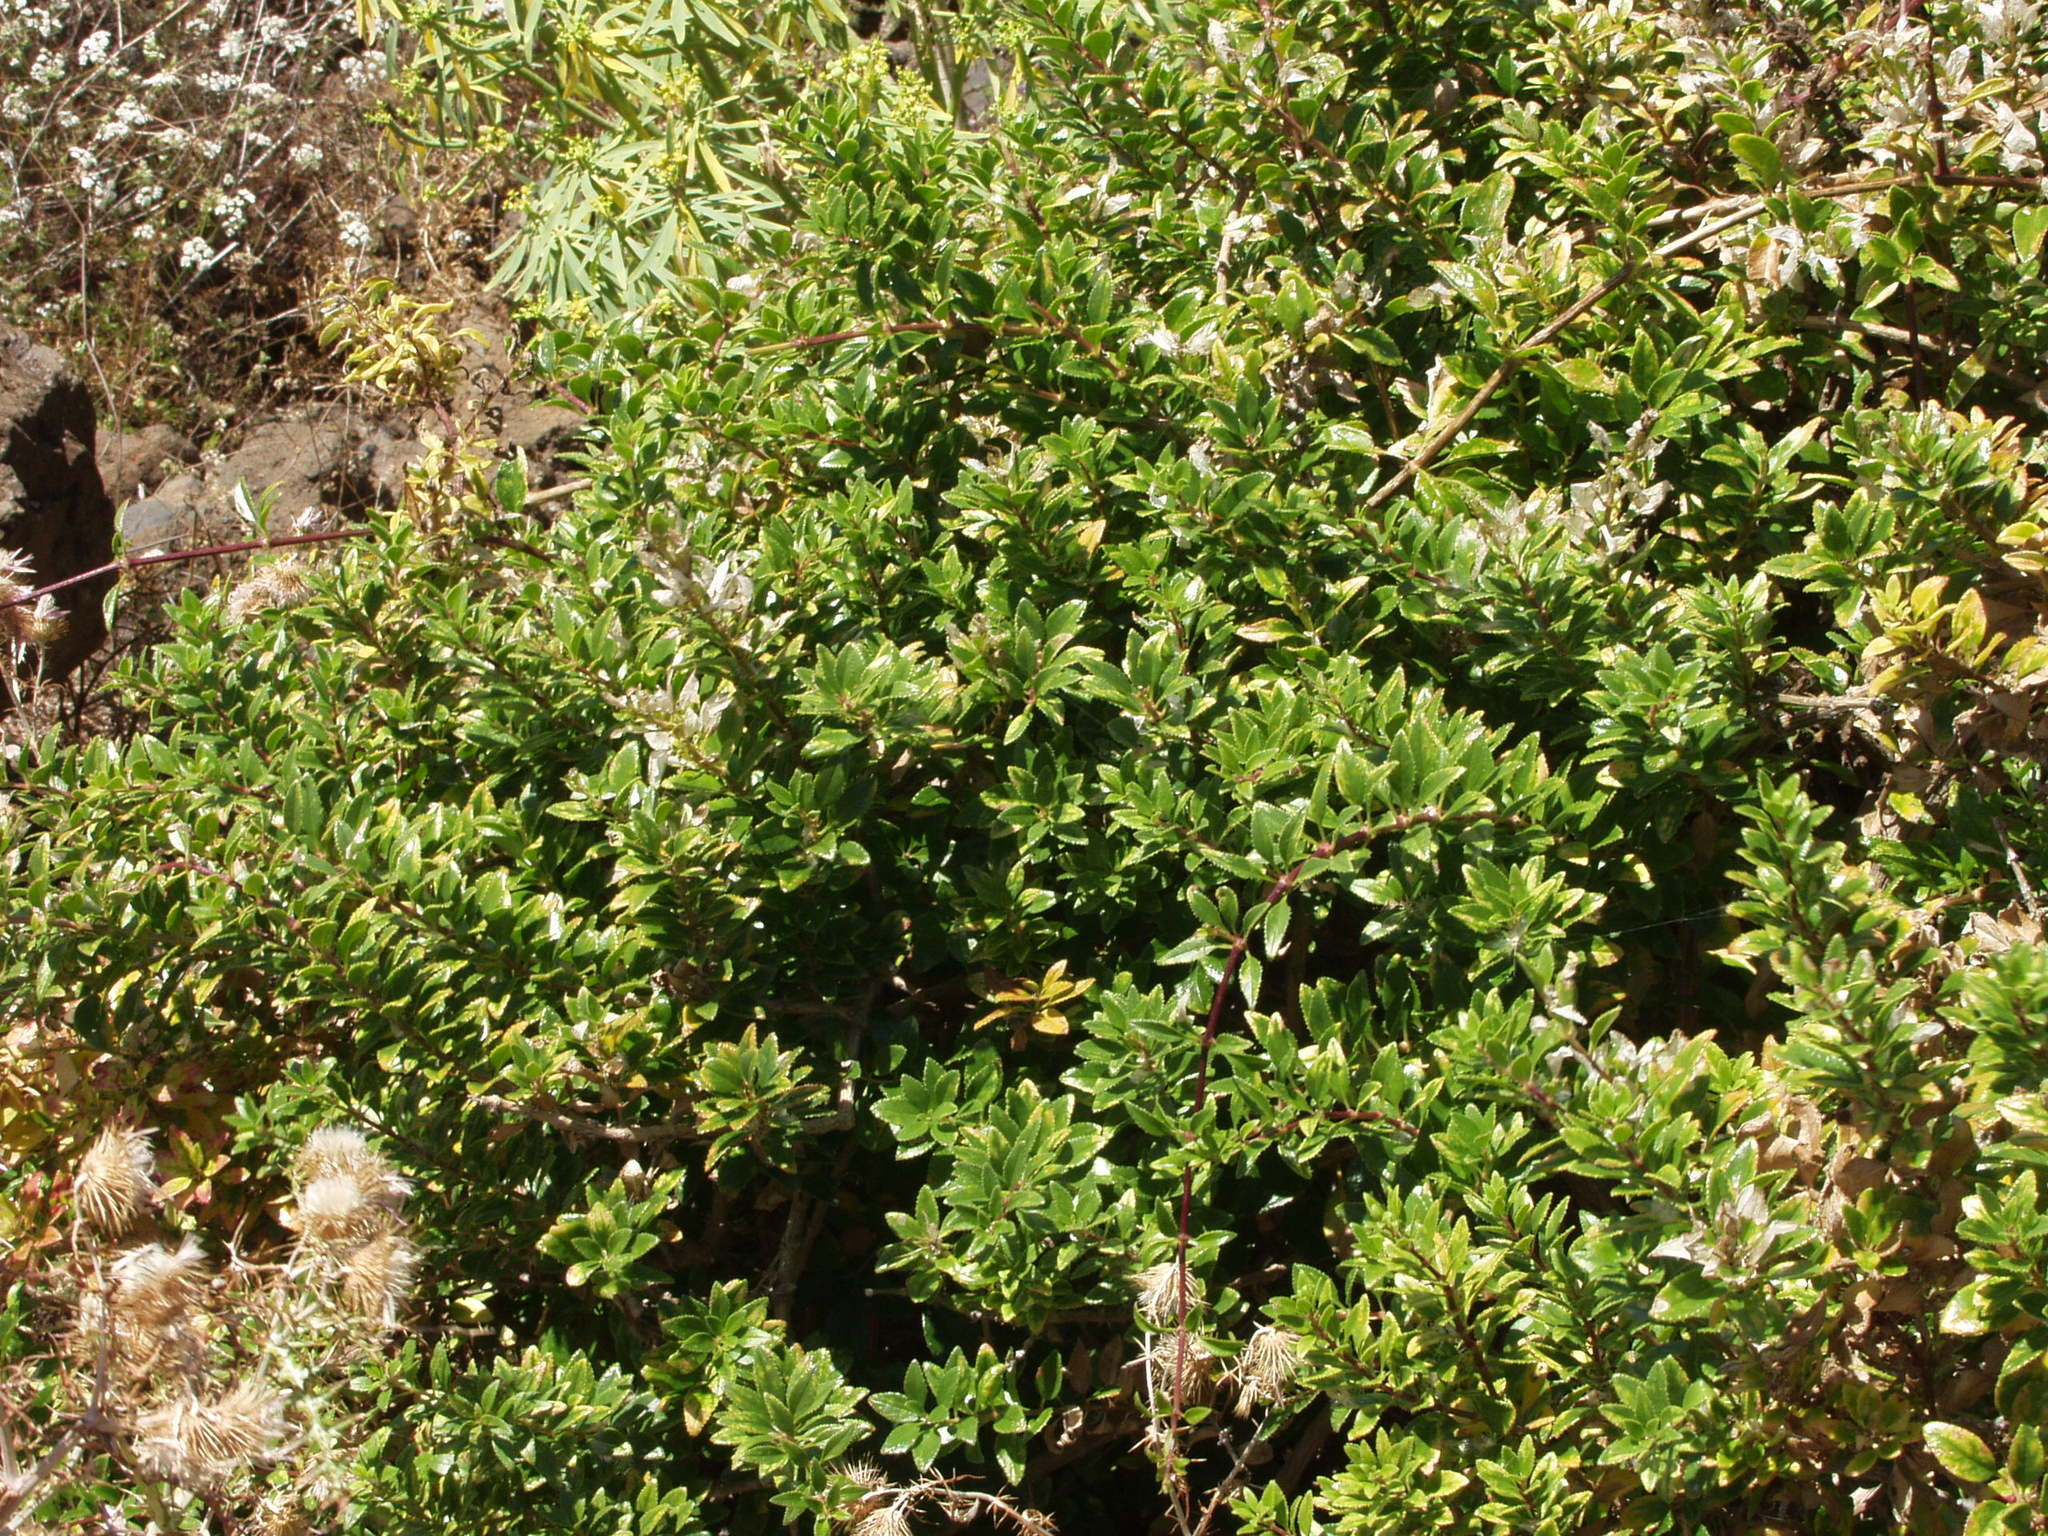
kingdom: Plantae
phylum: Tracheophyta
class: Magnoliopsida
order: Gentianales
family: Rubiaceae
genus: Rubia
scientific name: Rubia fruticosa
